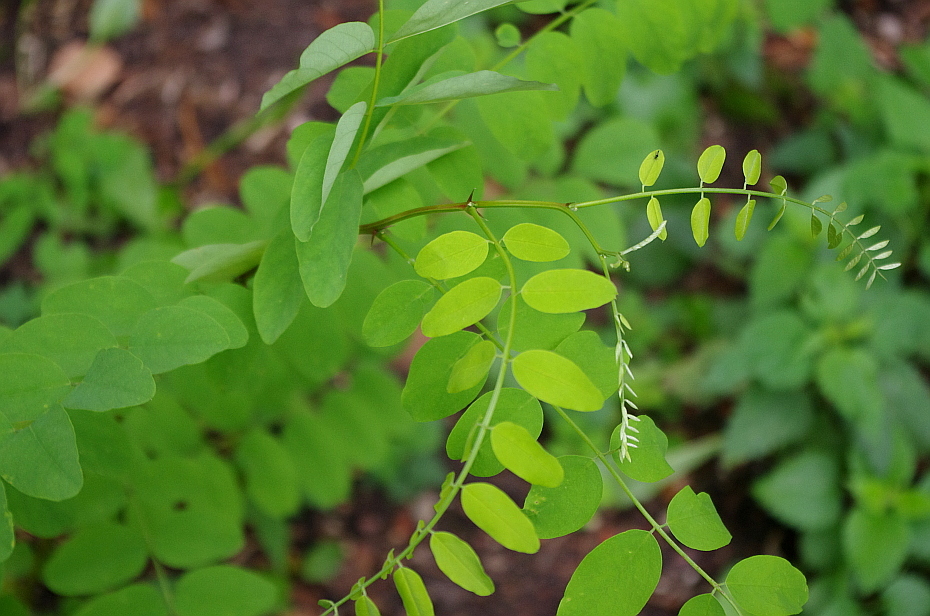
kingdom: Plantae
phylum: Tracheophyta
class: Magnoliopsida
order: Fabales
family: Fabaceae
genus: Robinia
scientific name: Robinia pseudoacacia
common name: Black locust
